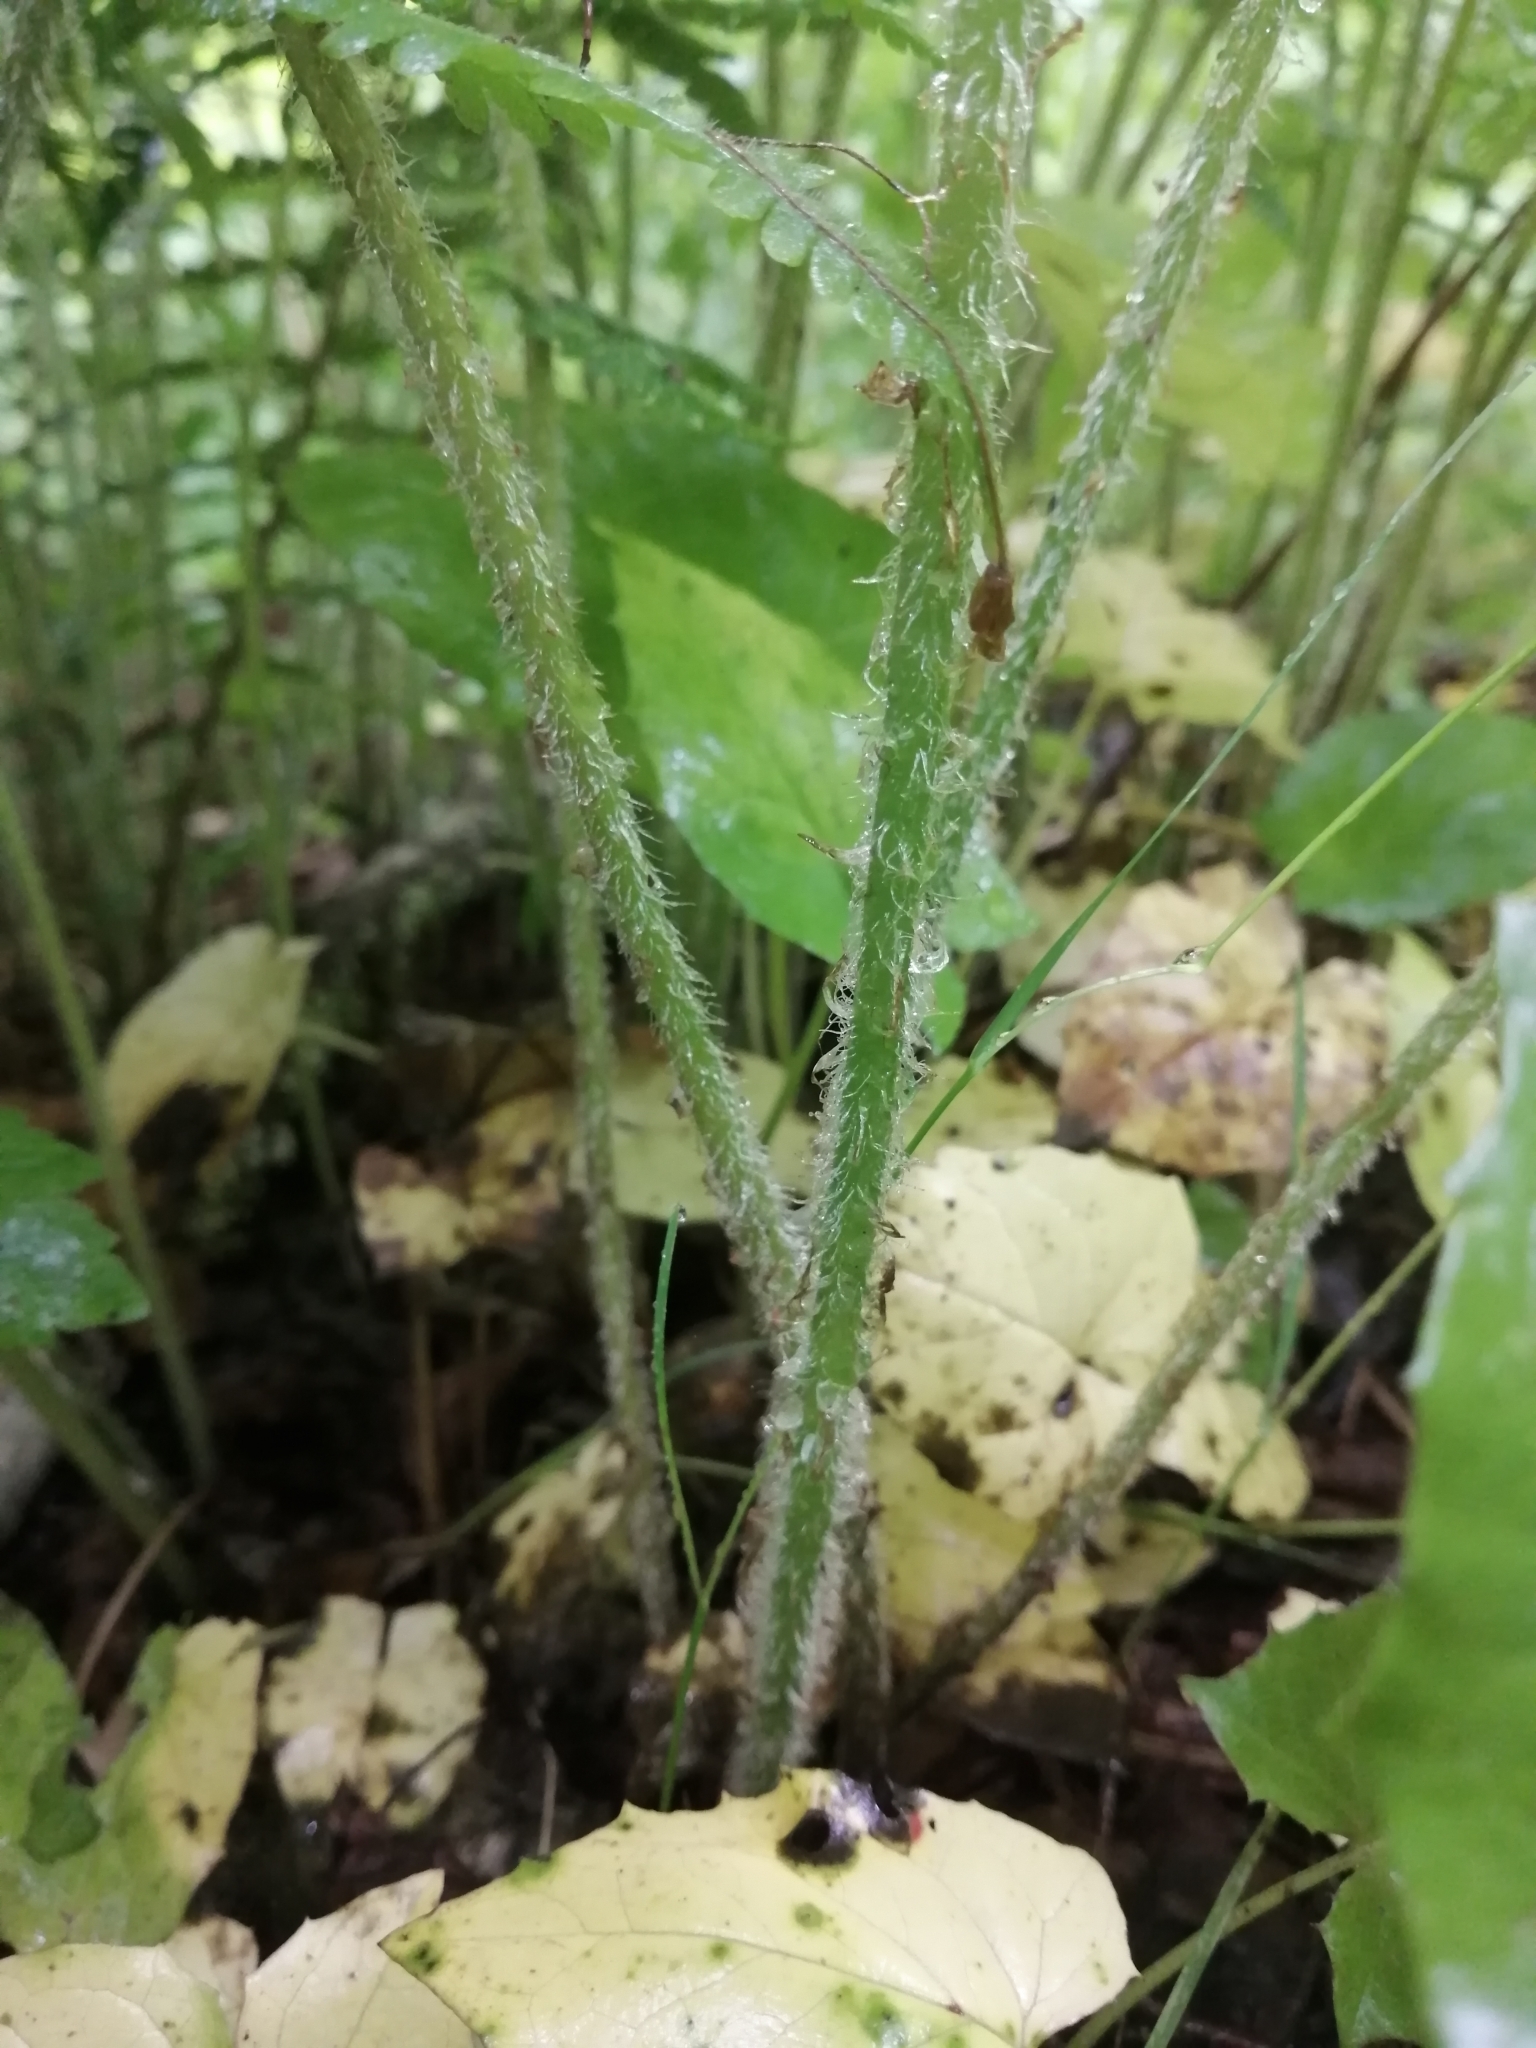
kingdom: Plantae
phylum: Tracheophyta
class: Polypodiopsida
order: Polypodiales
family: Athyriaceae
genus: Deparia
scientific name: Deparia acrostichoides
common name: Silver false spleenwort
